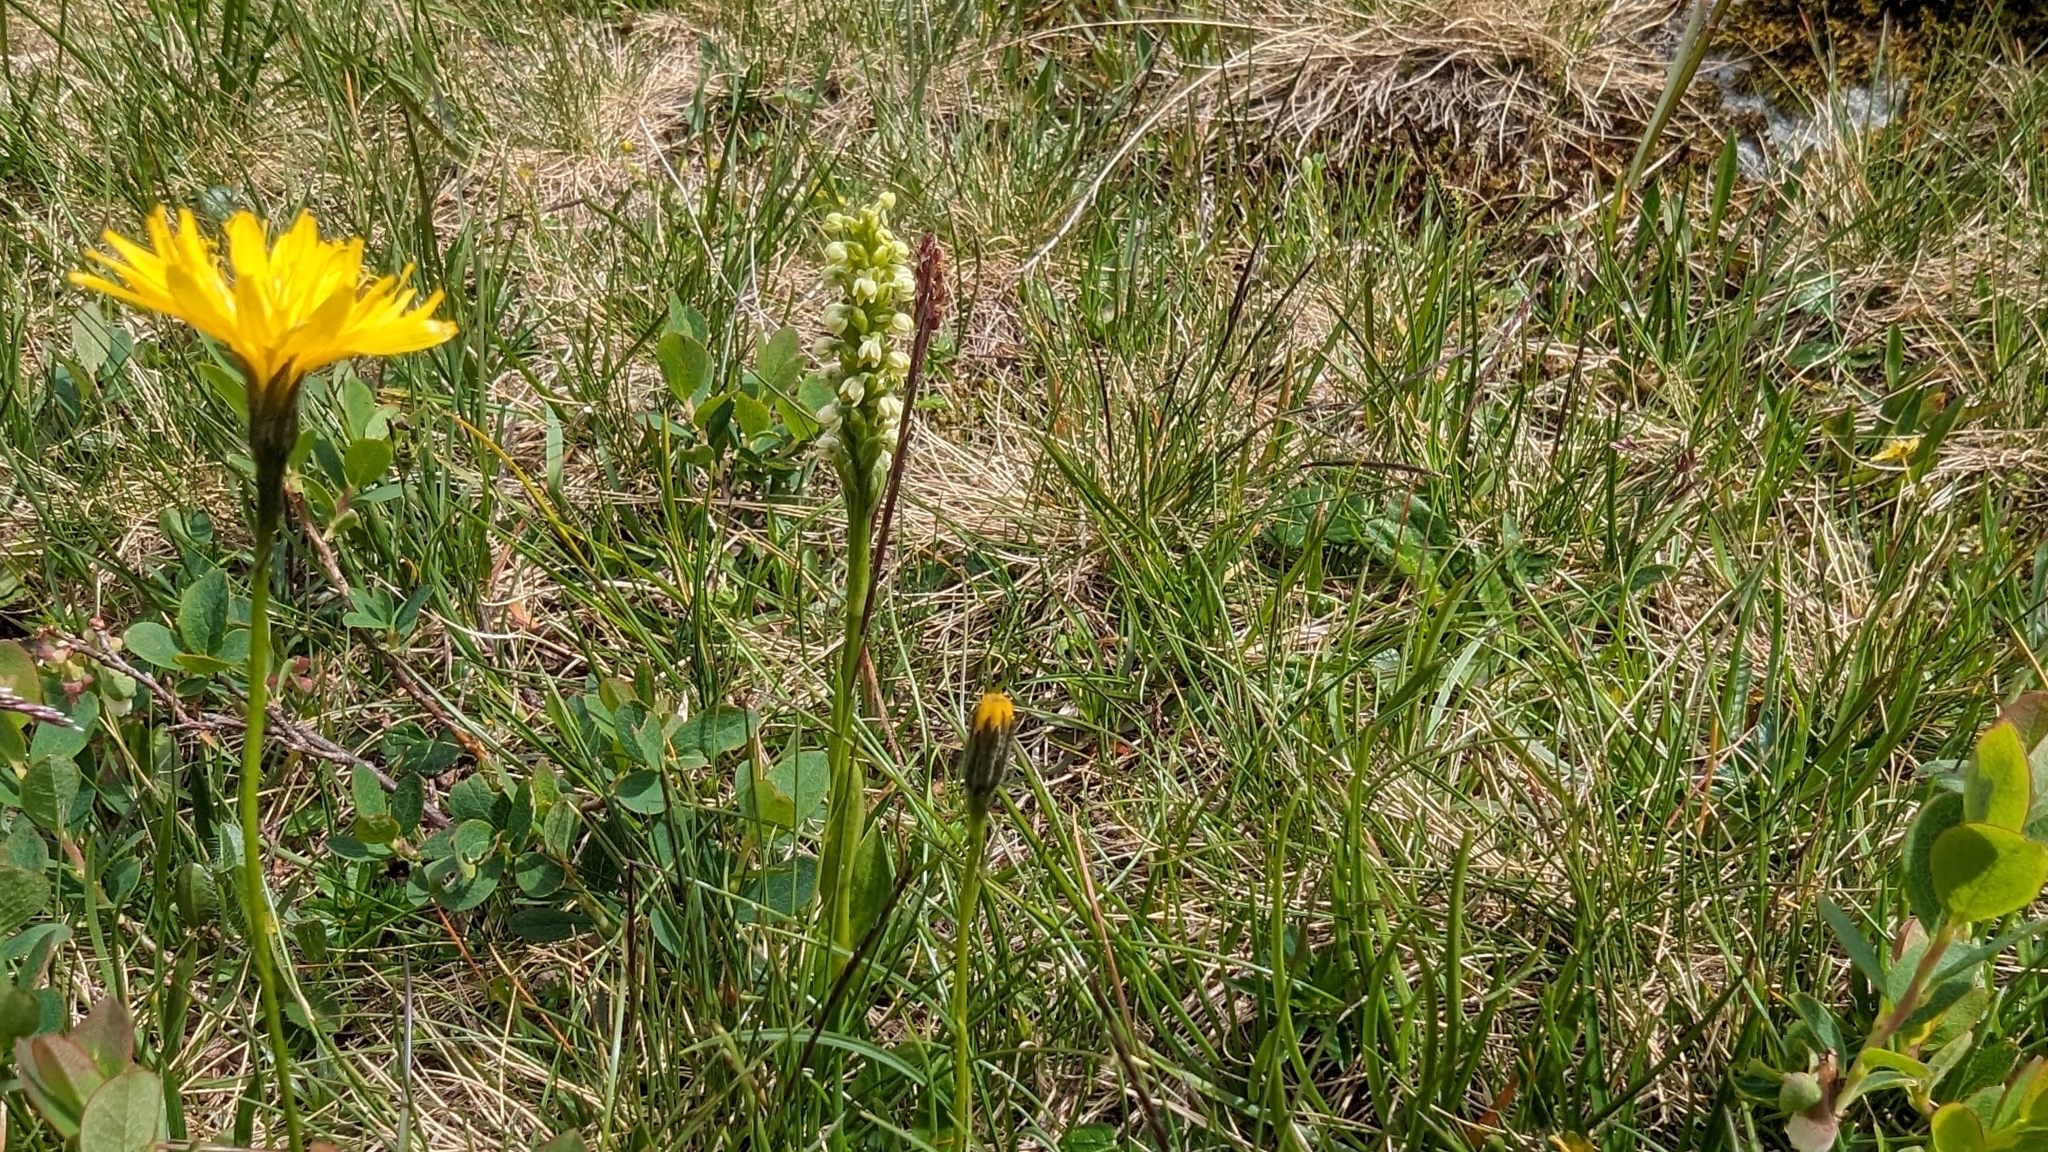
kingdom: Plantae
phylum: Tracheophyta
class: Liliopsida
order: Asparagales
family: Orchidaceae
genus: Pseudorchis
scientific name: Pseudorchis albida
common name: Small-white orchid
